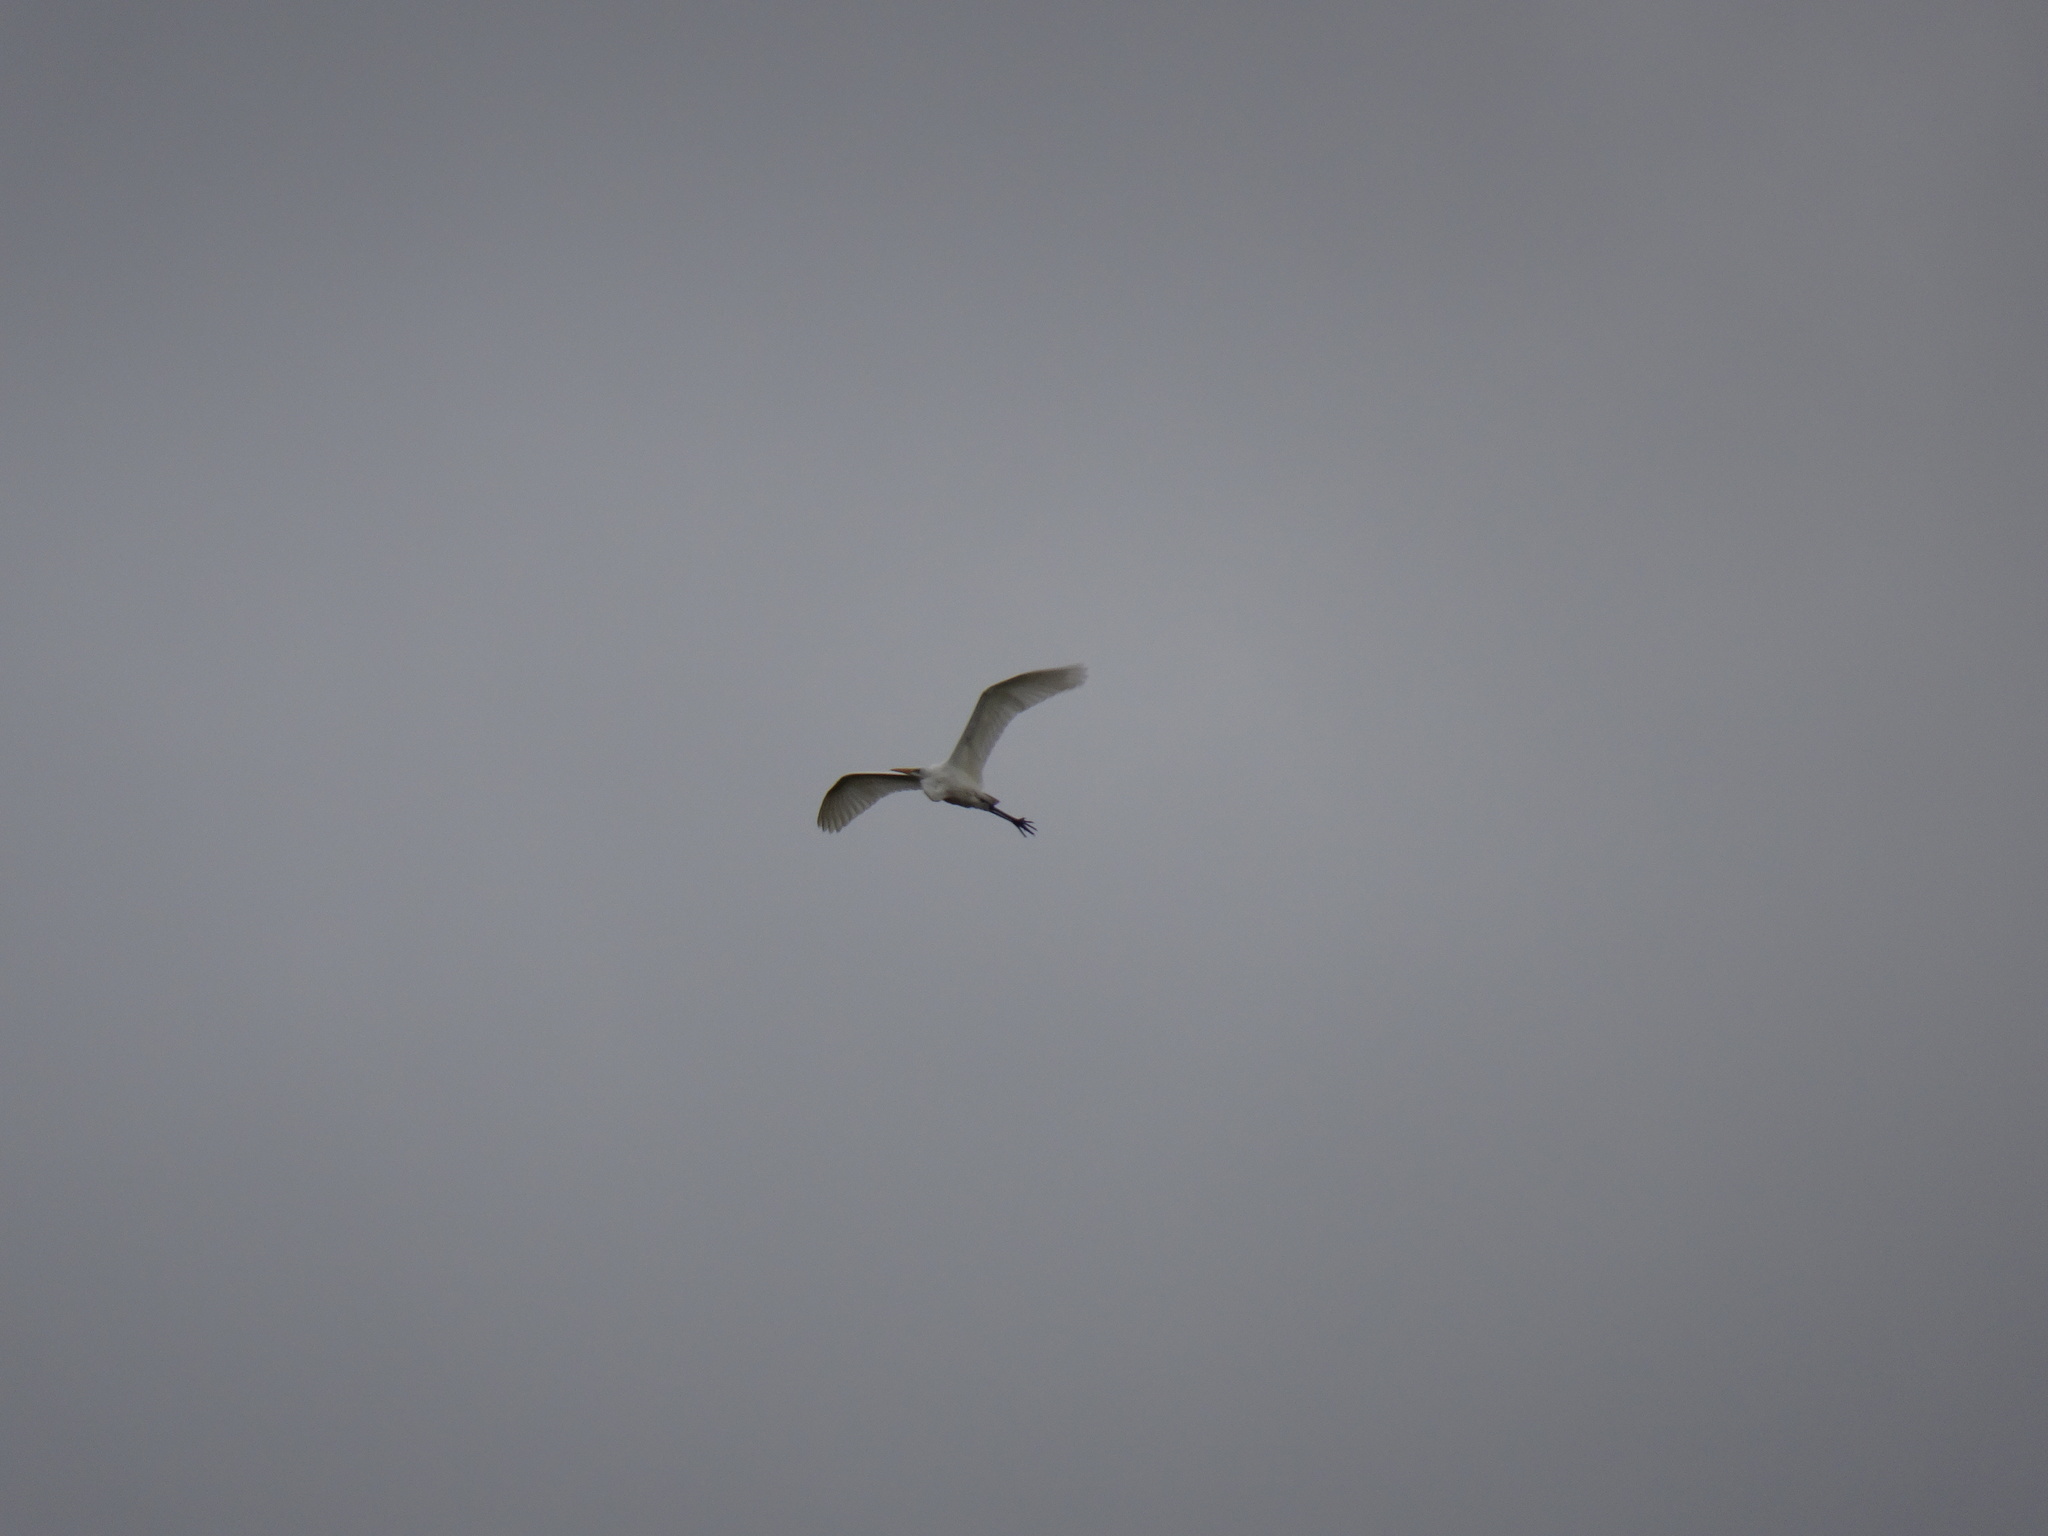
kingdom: Animalia
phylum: Chordata
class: Aves
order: Pelecaniformes
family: Ardeidae
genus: Ardea
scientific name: Ardea alba
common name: Great egret
